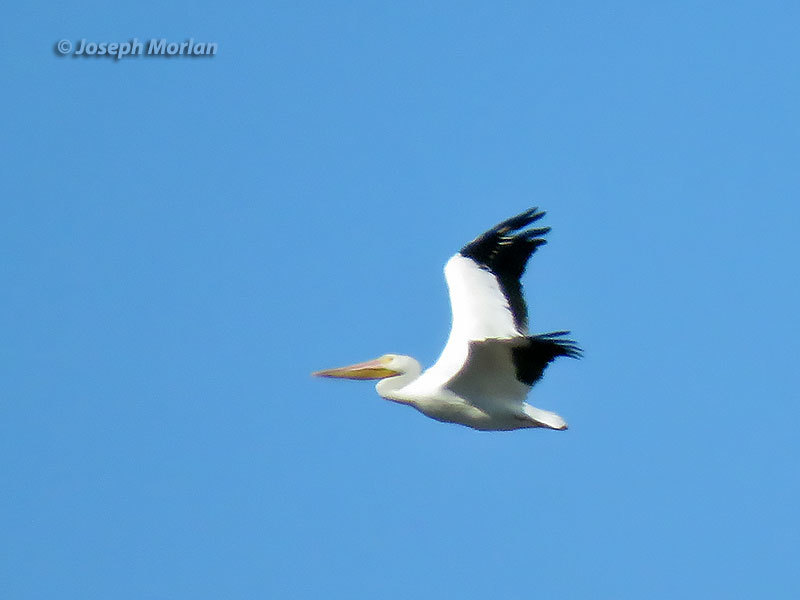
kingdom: Animalia
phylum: Chordata
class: Aves
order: Pelecaniformes
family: Pelecanidae
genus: Pelecanus
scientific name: Pelecanus erythrorhynchos
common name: American white pelican
